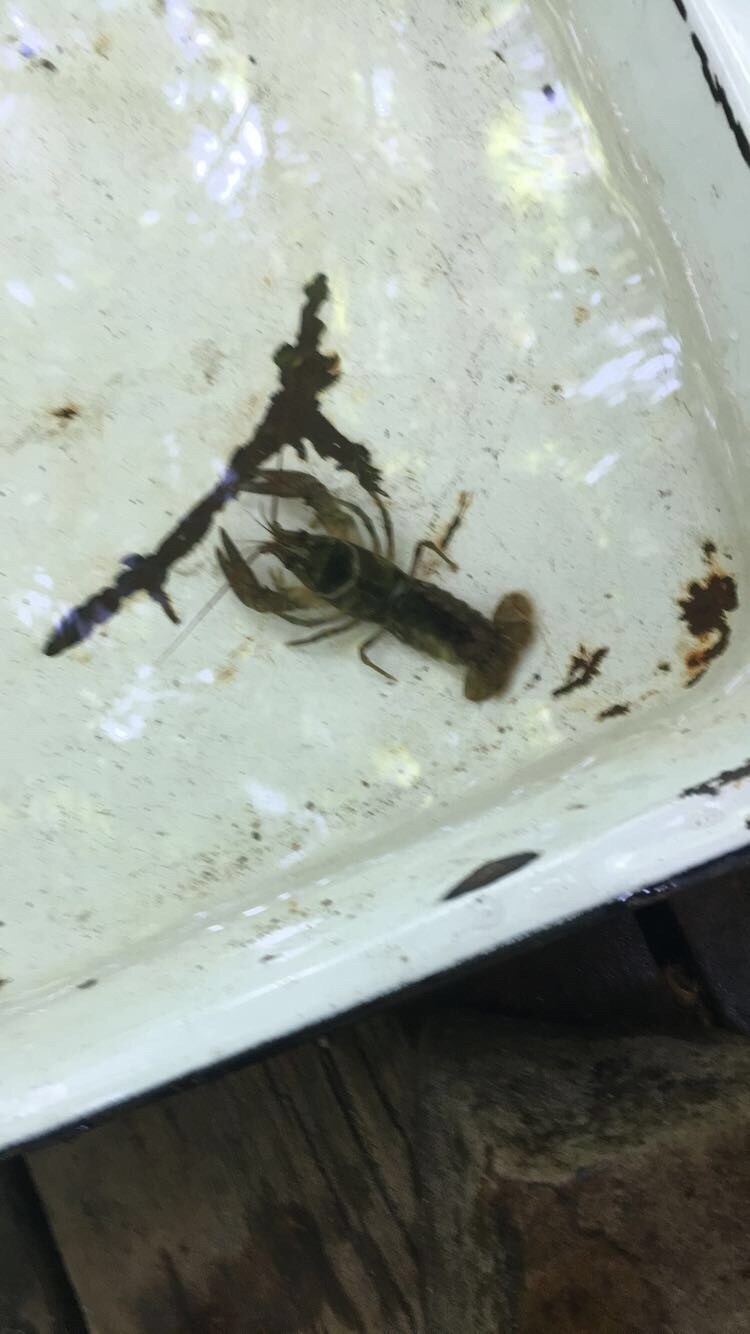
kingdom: Animalia
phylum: Arthropoda
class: Malacostraca
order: Decapoda
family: Cambaridae
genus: Faxonius
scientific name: Faxonius propinquus
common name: Northern clearwater crayfish
